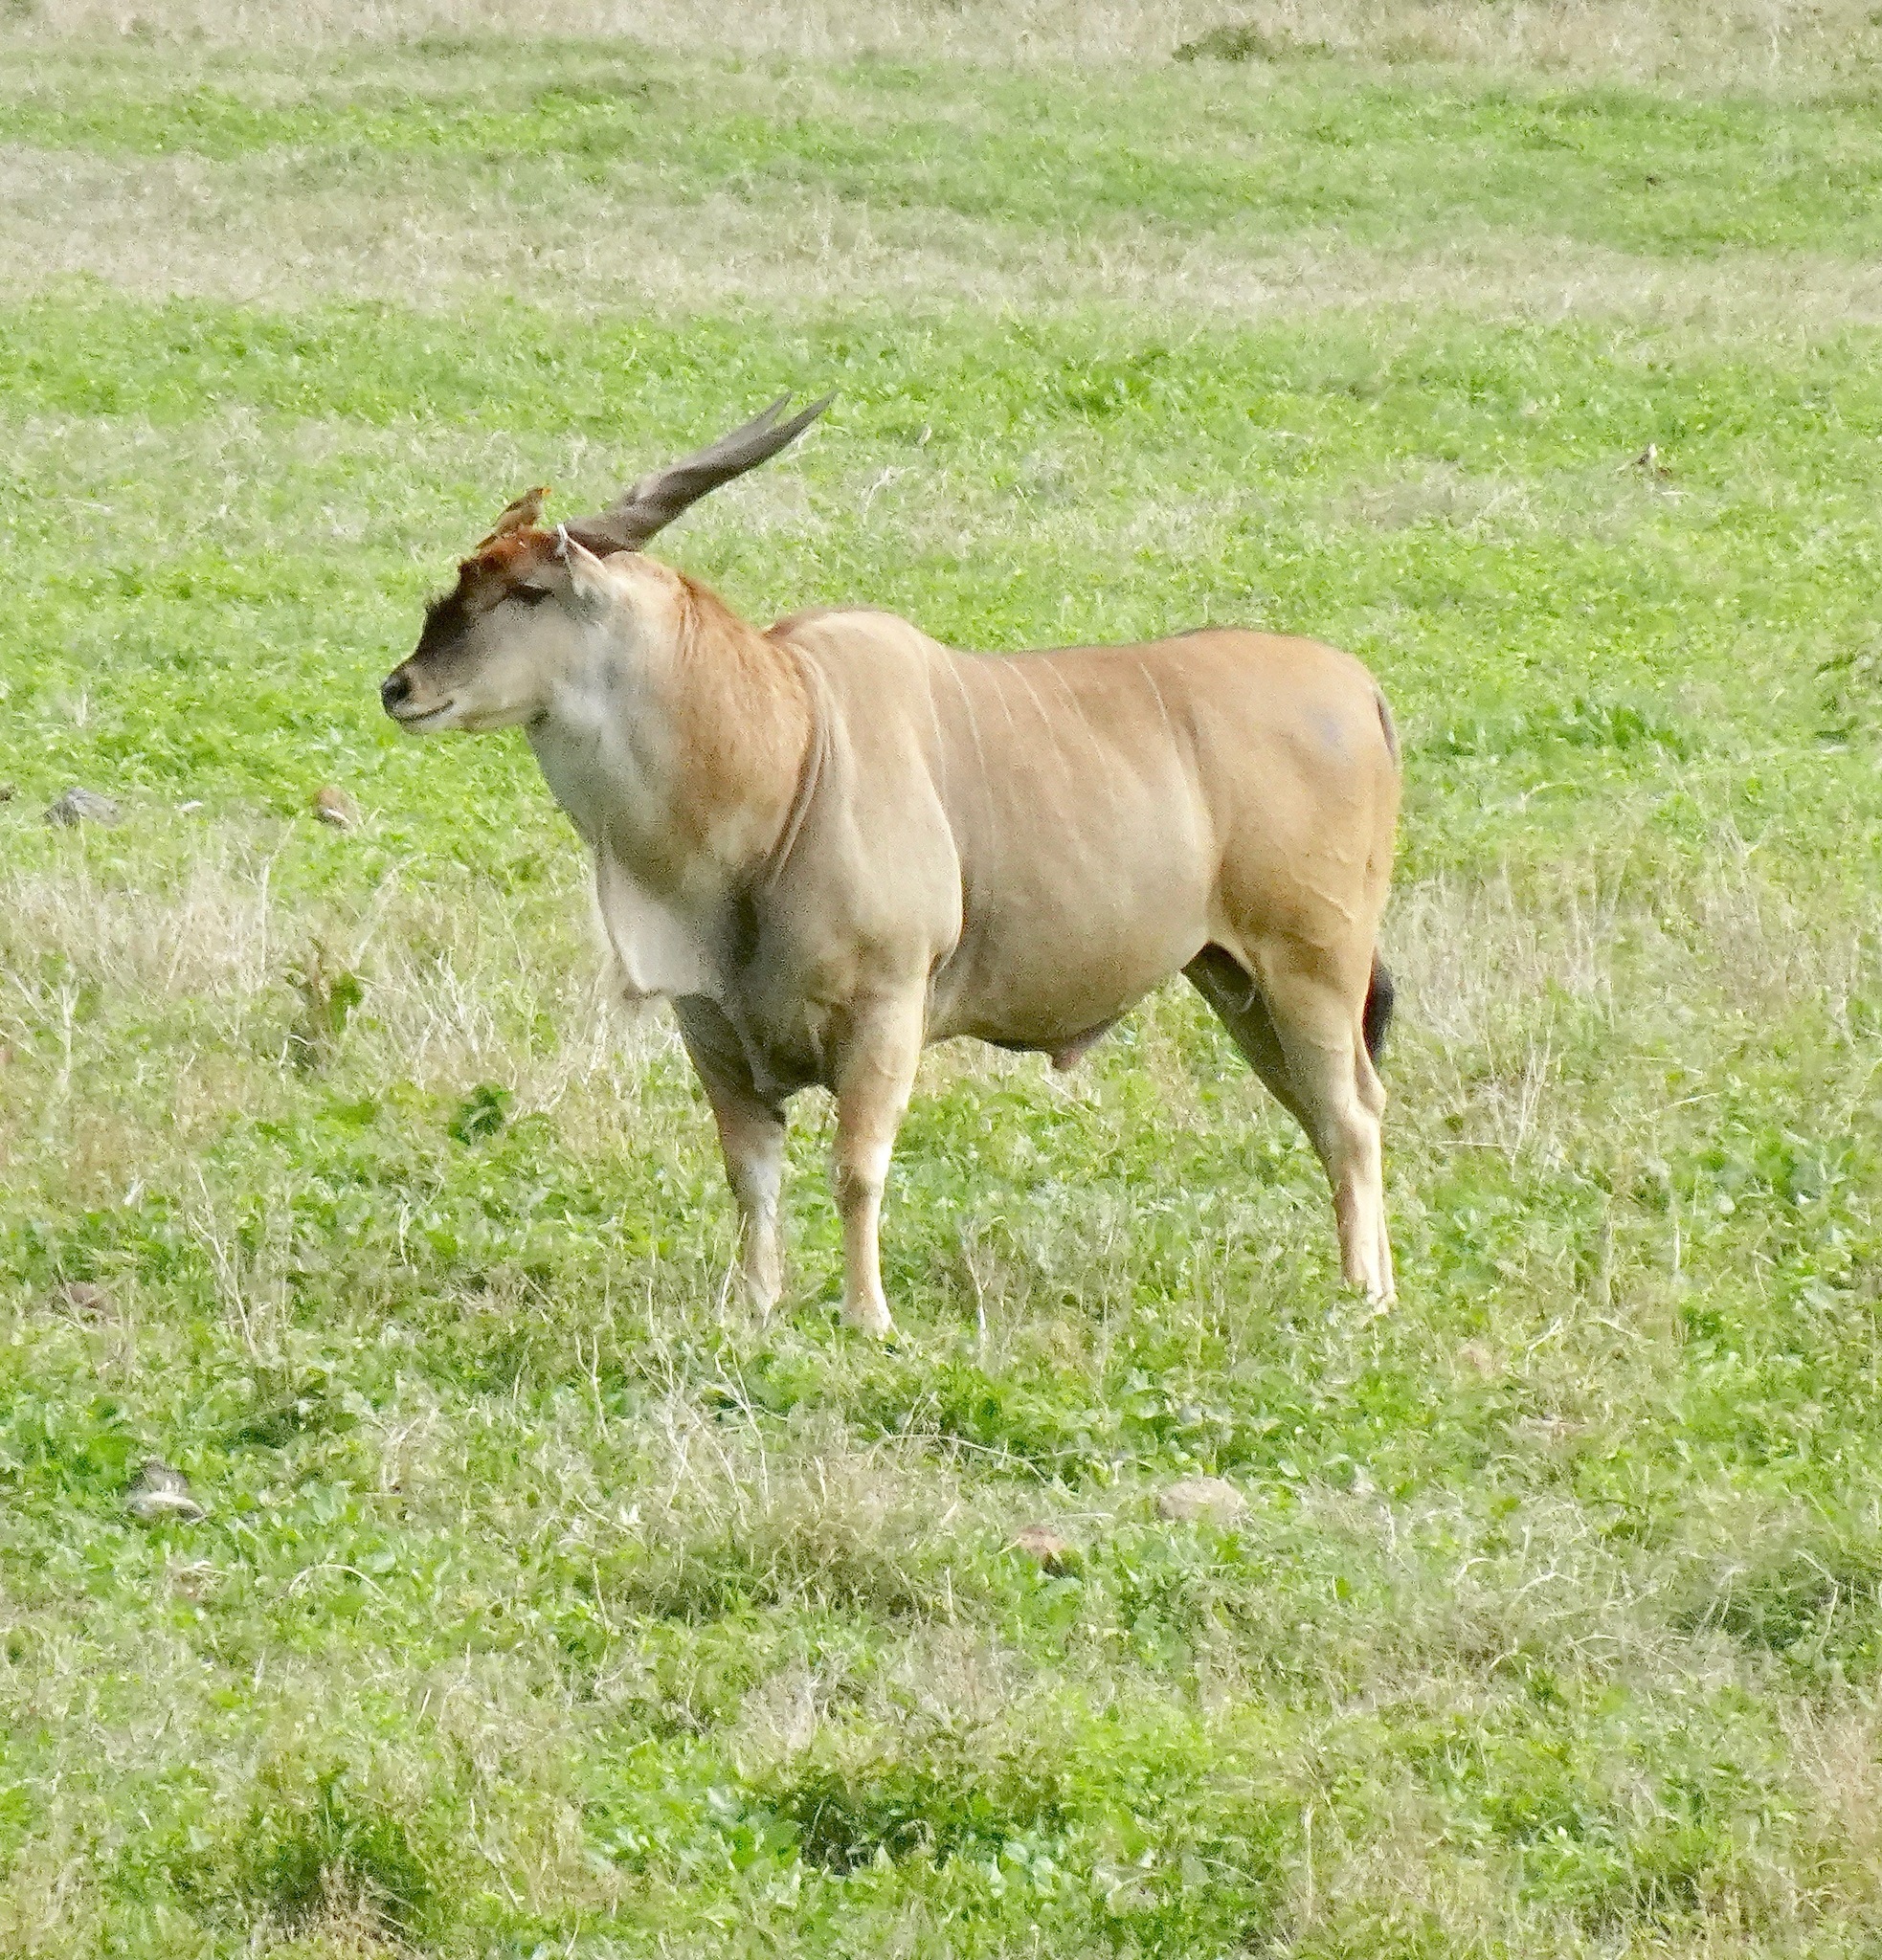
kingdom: Animalia
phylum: Chordata
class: Mammalia
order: Artiodactyla
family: Bovidae
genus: Taurotragus
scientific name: Taurotragus oryx
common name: Common eland
